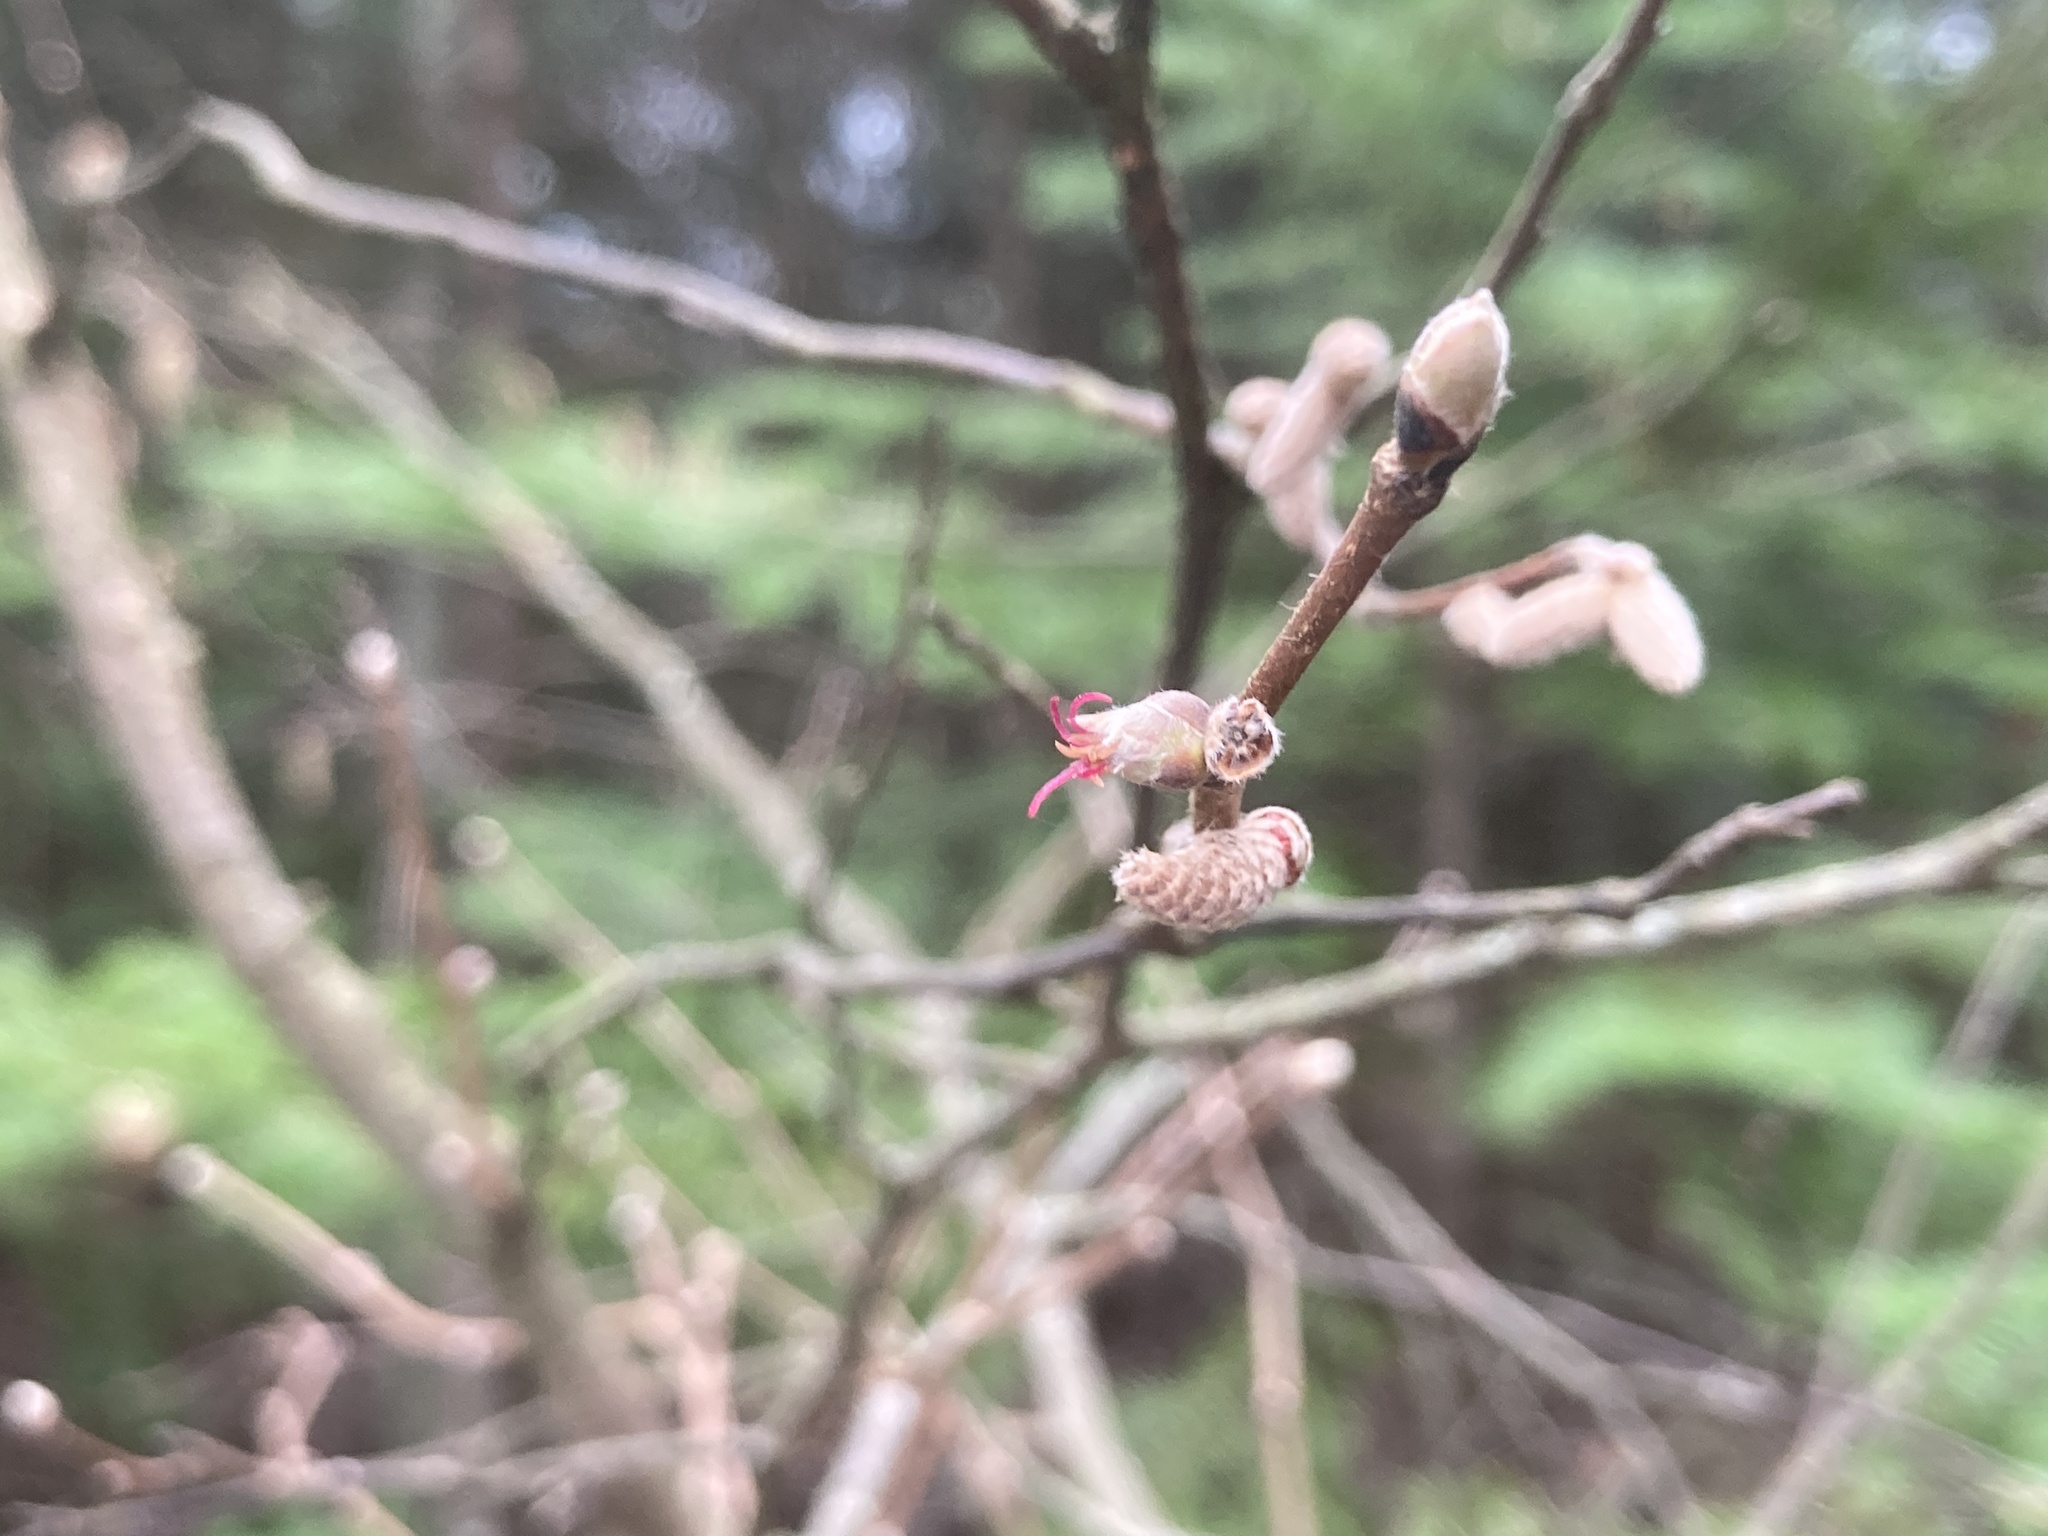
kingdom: Plantae
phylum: Tracheophyta
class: Magnoliopsida
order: Fagales
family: Betulaceae
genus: Corylus
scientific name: Corylus cornuta
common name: Beaked hazel
